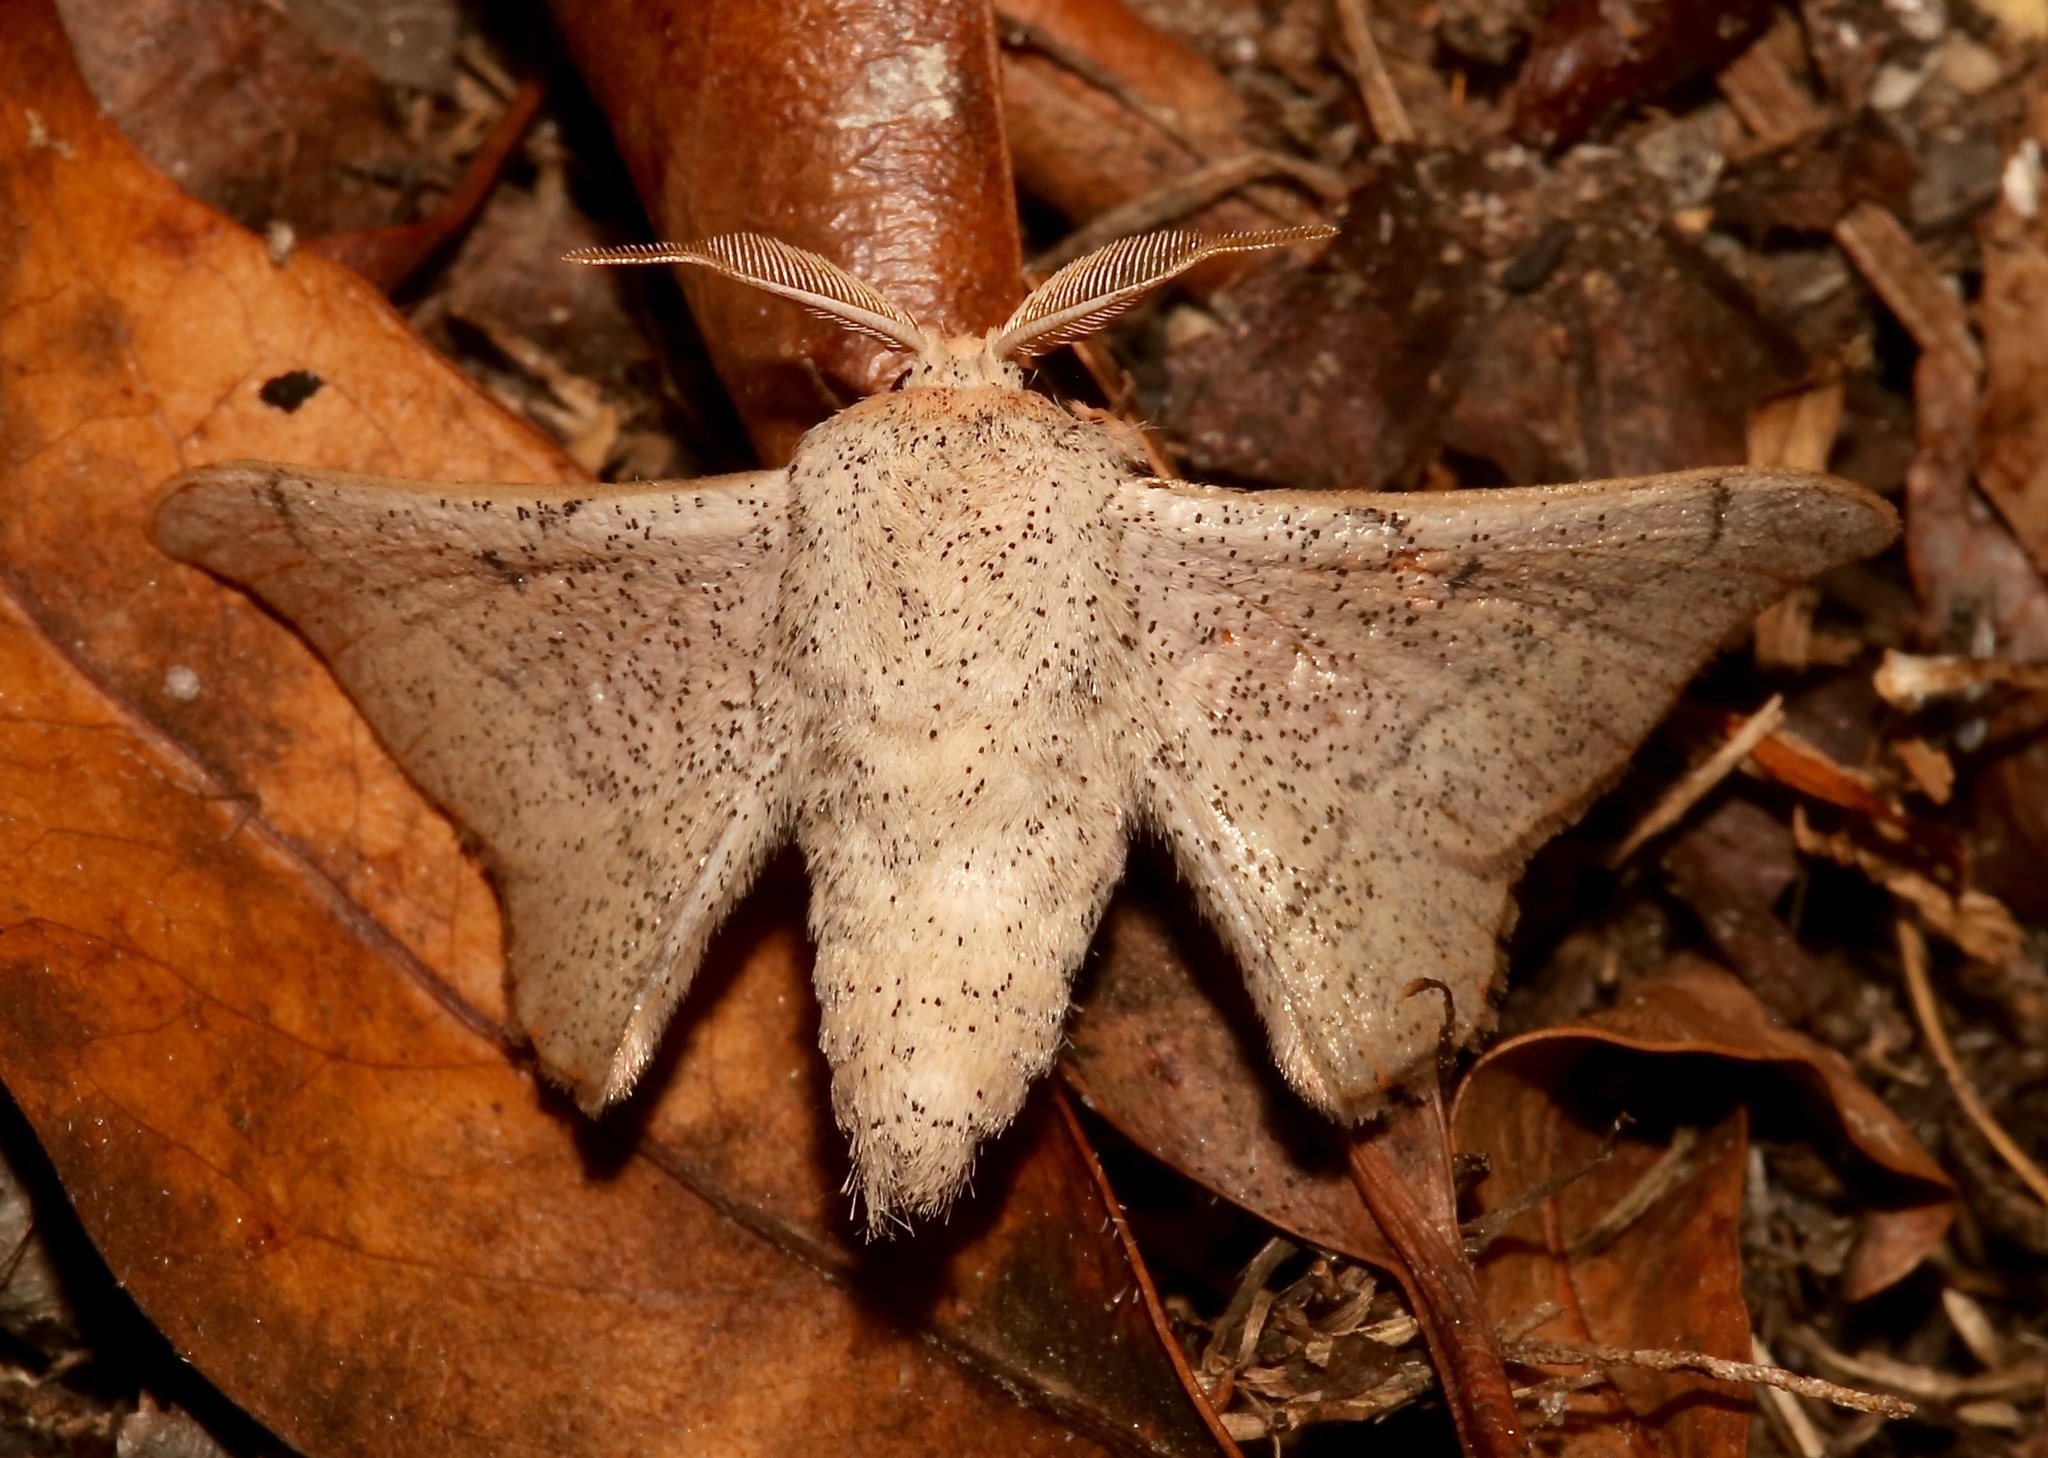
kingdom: Animalia
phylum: Arthropoda
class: Insecta
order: Lepidoptera
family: Mimallonidae
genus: Cicinnus
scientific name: Cicinnus melsheimeri
